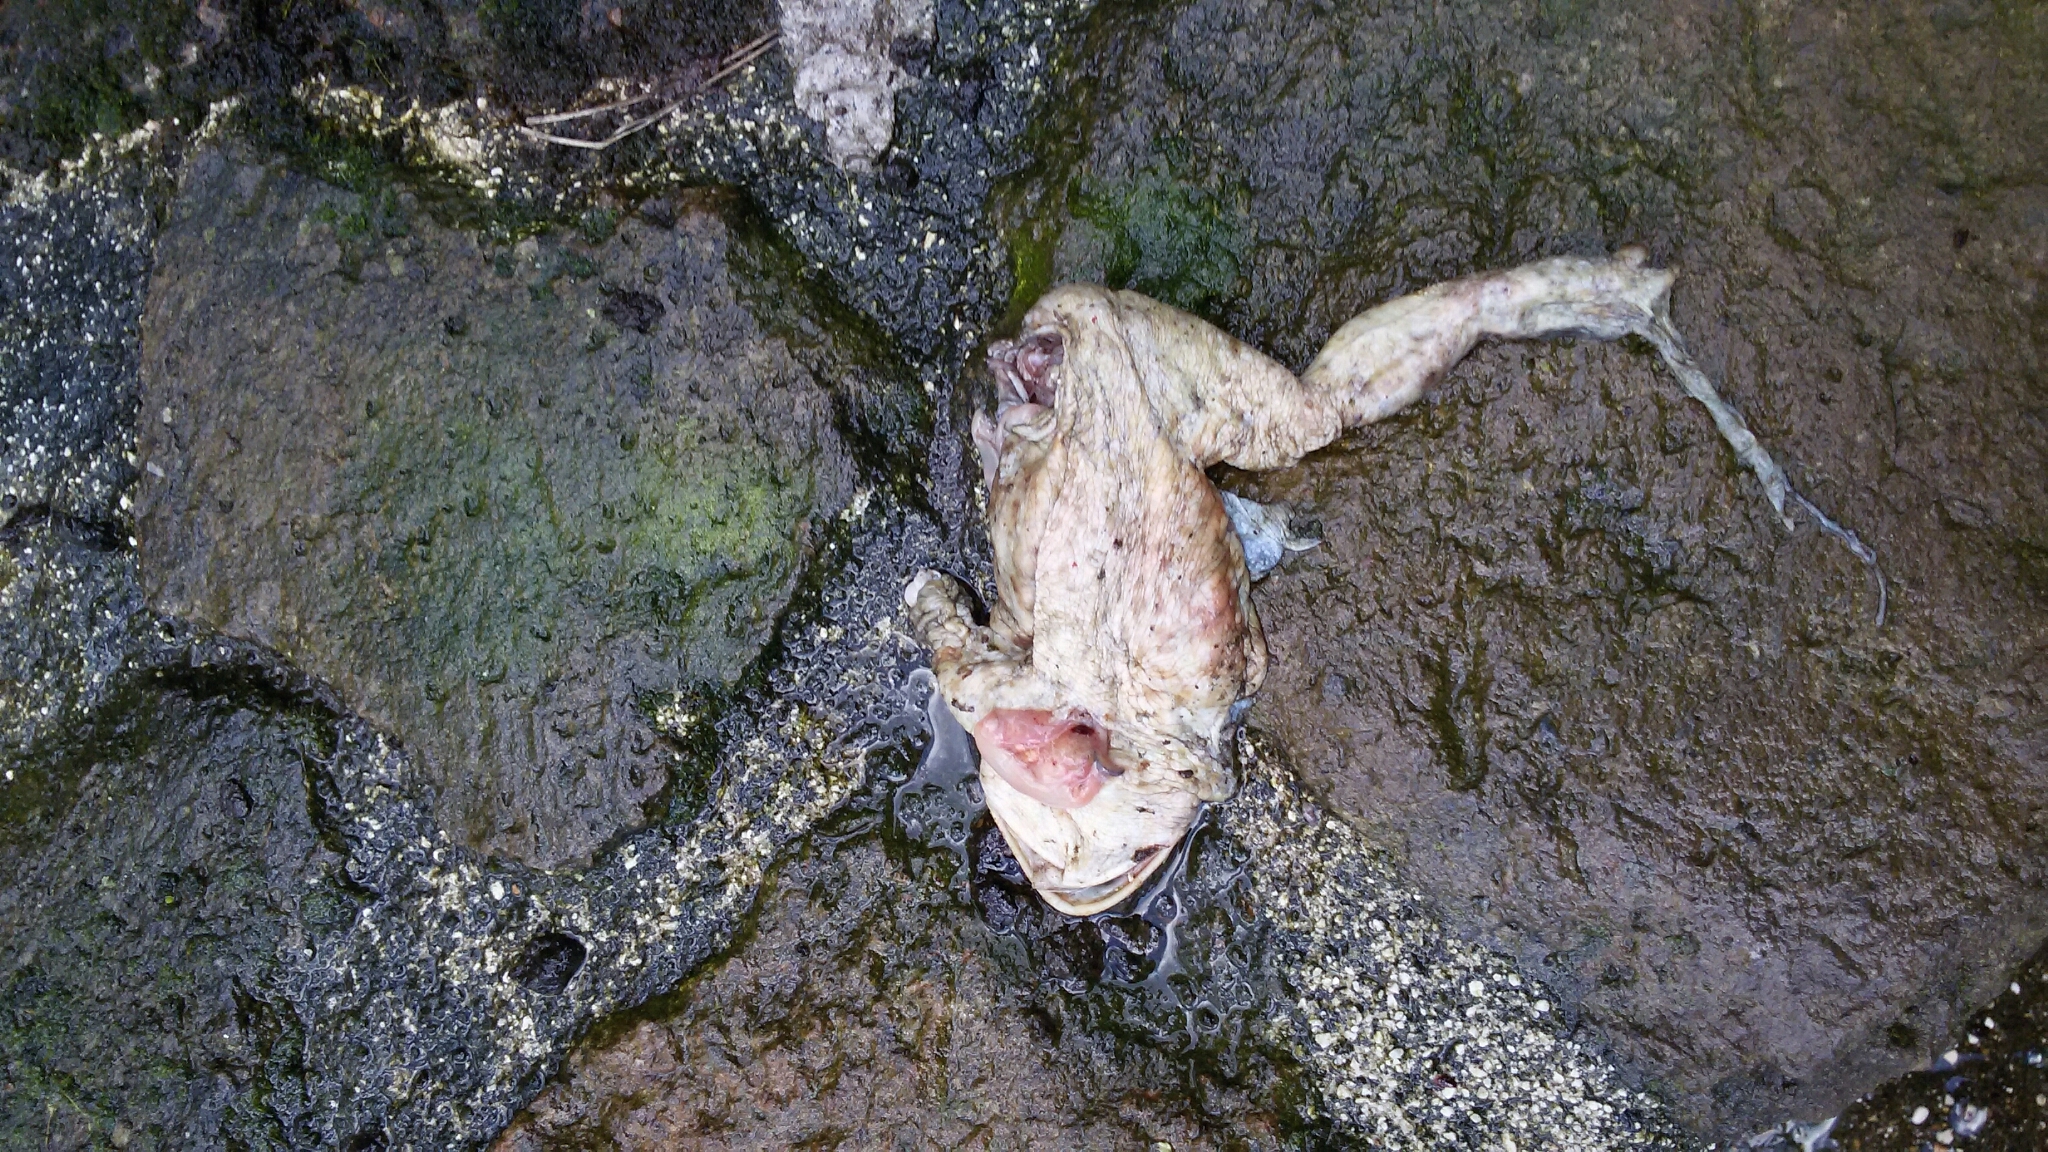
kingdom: Animalia
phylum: Chordata
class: Amphibia
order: Anura
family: Bufonidae
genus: Bufo
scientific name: Bufo bufo
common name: Common toad
